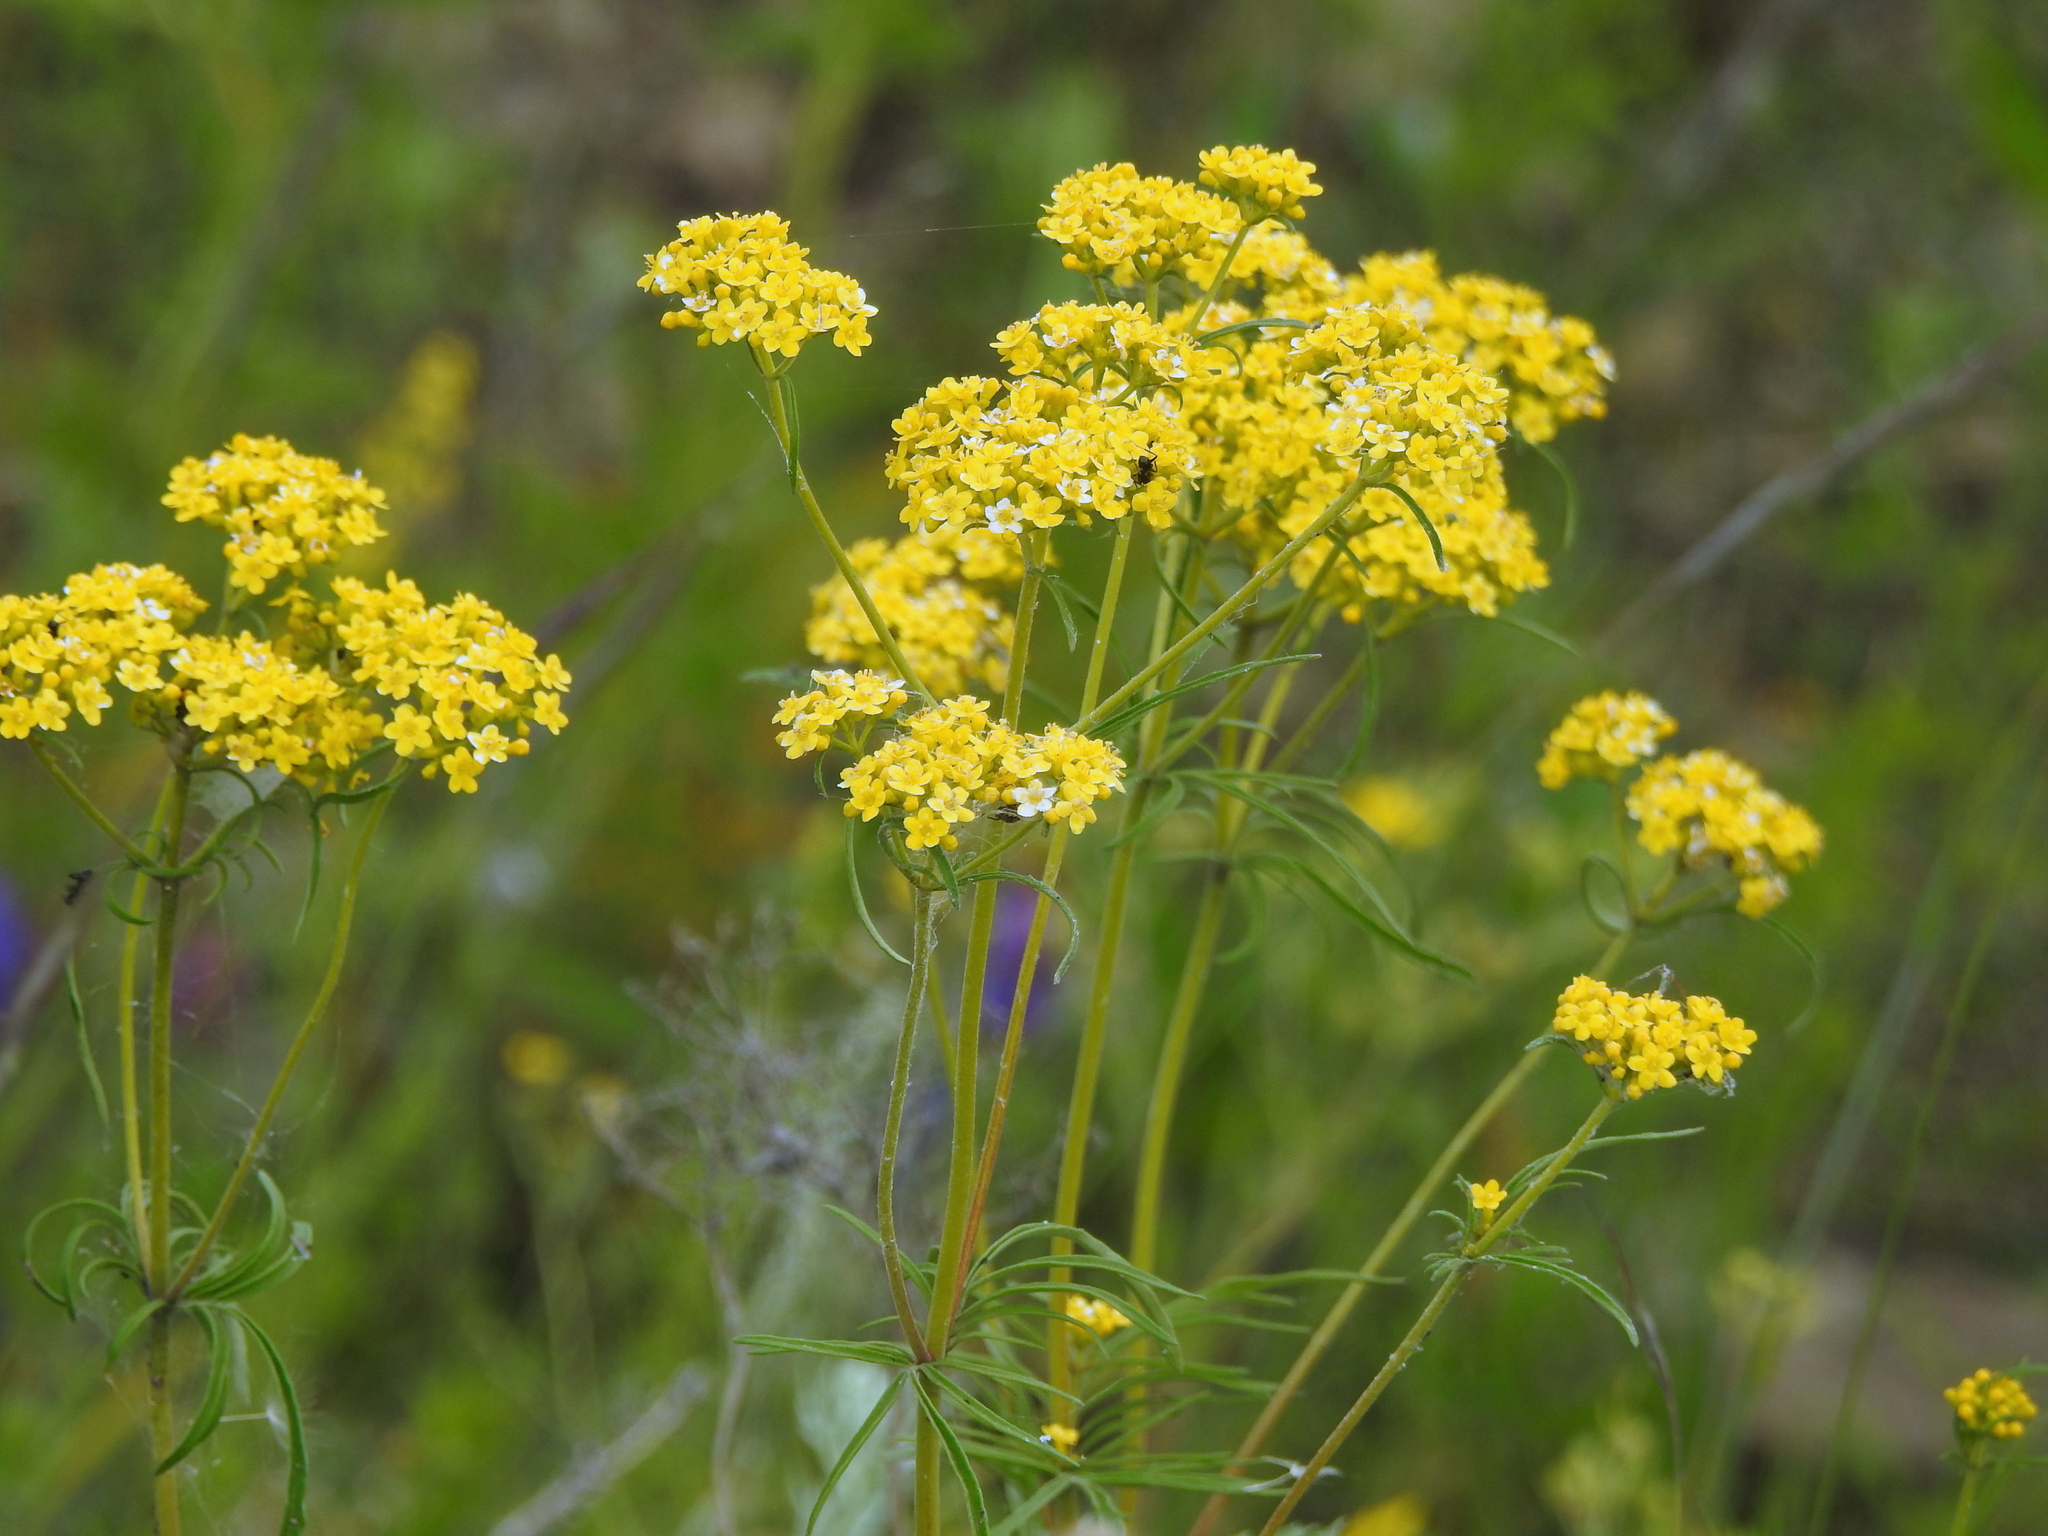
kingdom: Plantae
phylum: Tracheophyta
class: Magnoliopsida
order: Dipsacales
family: Caprifoliaceae
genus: Patrinia
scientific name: Patrinia scabiosifolia
